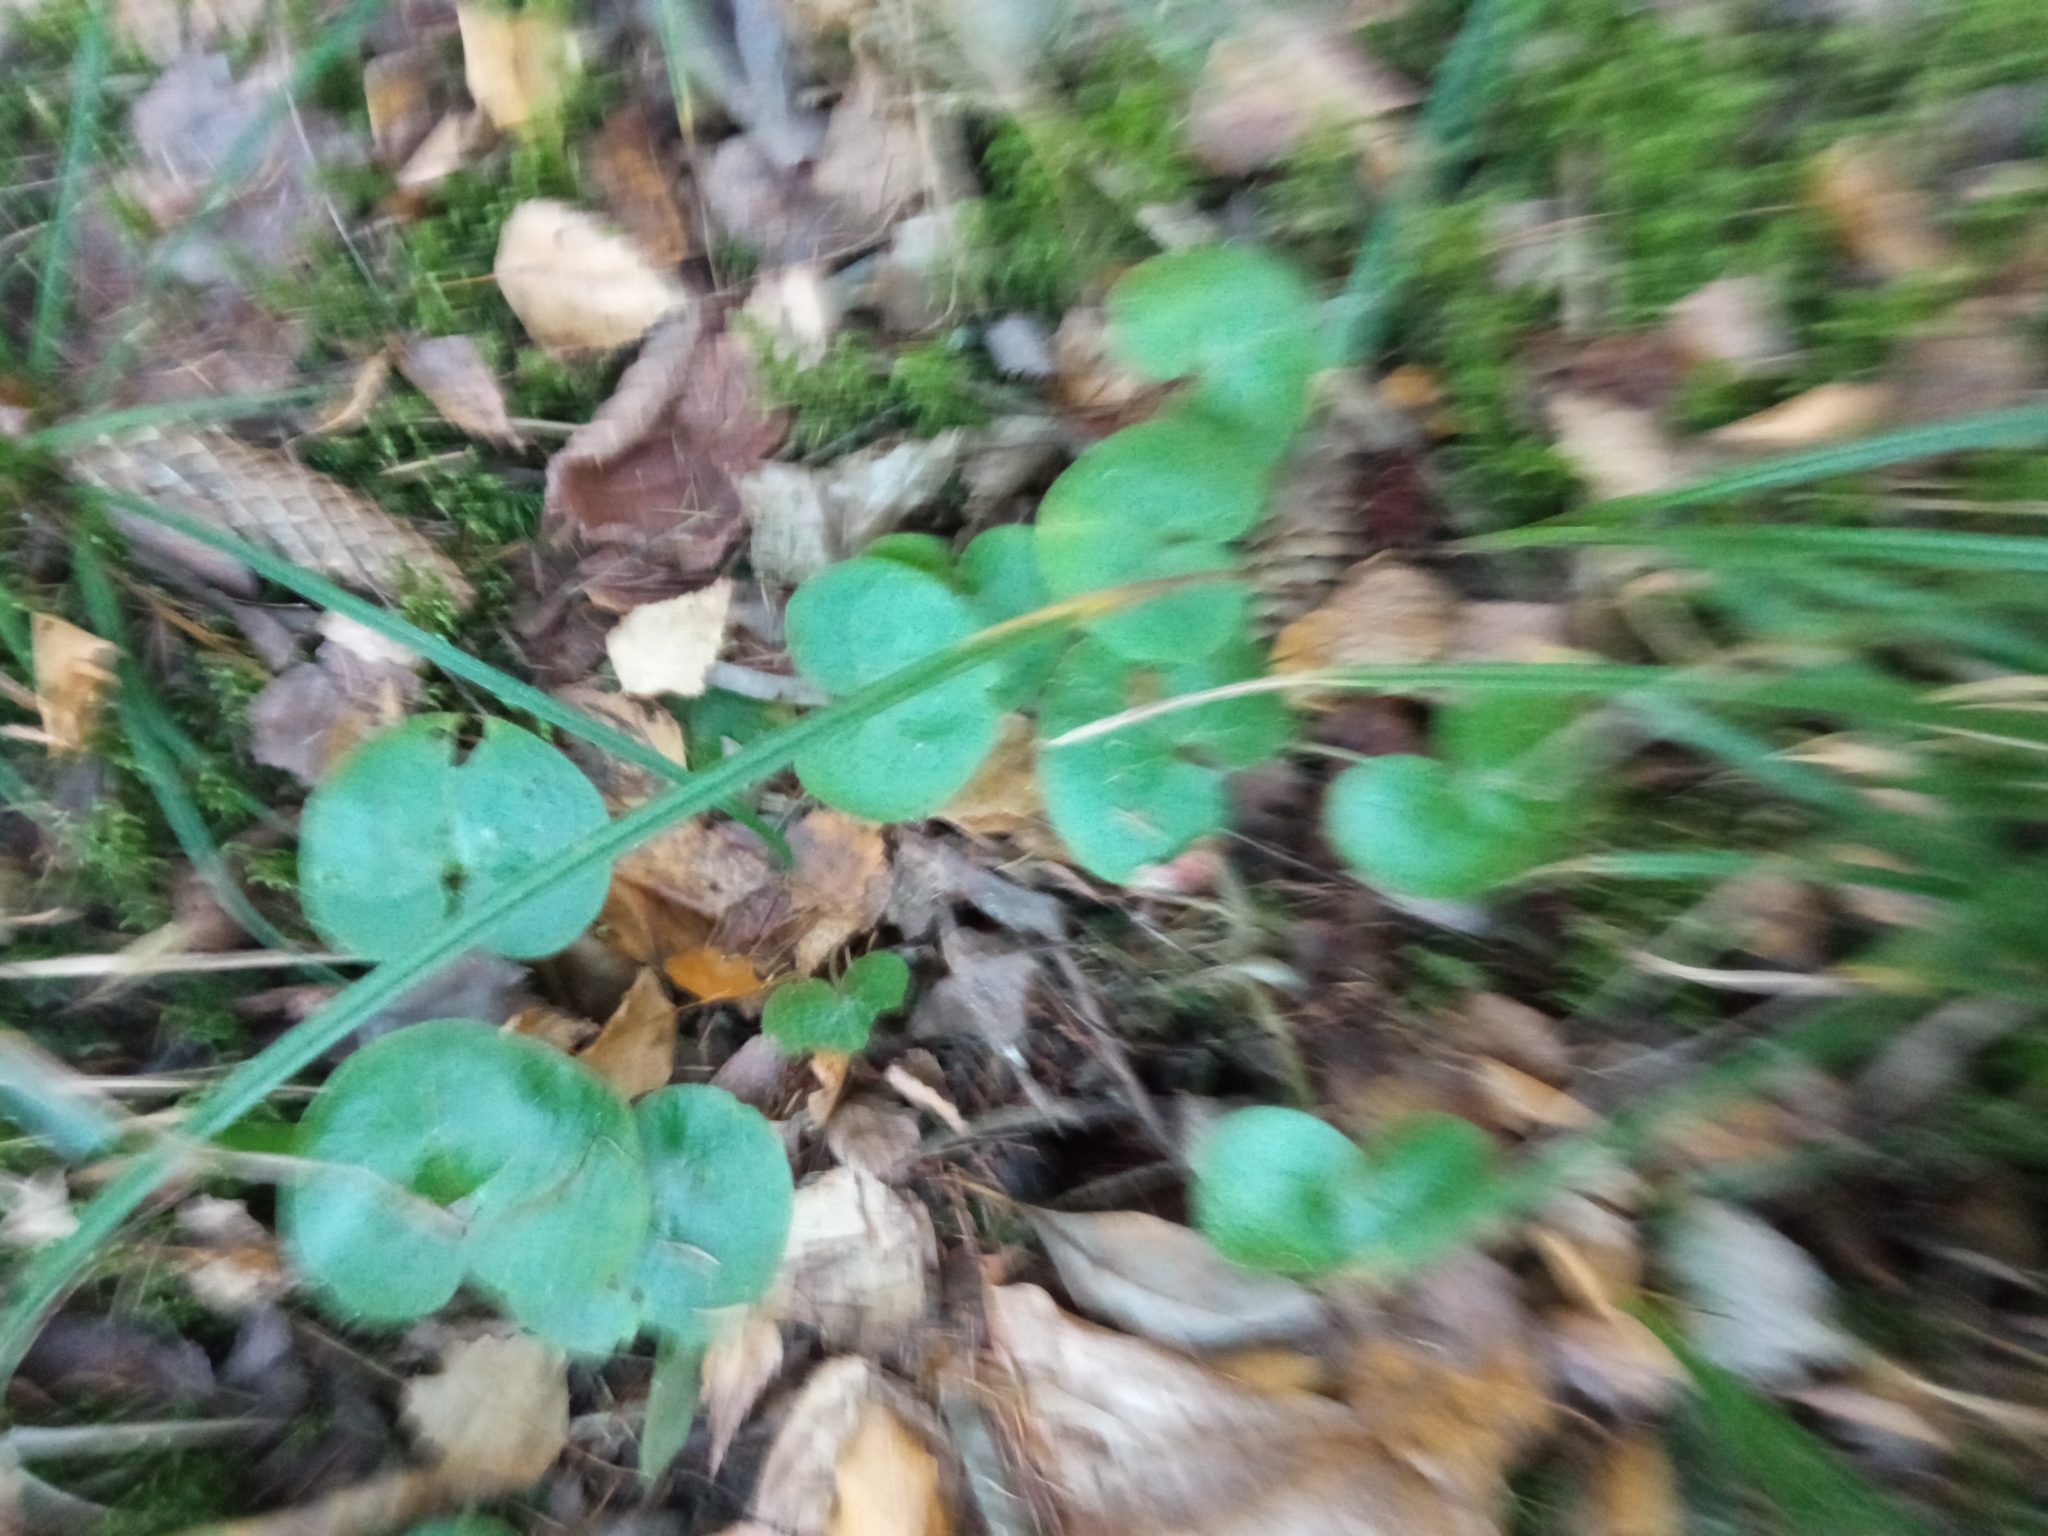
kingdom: Plantae
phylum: Tracheophyta
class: Magnoliopsida
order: Piperales
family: Aristolochiaceae
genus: Asarum
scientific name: Asarum europaeum
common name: Asarabacca
